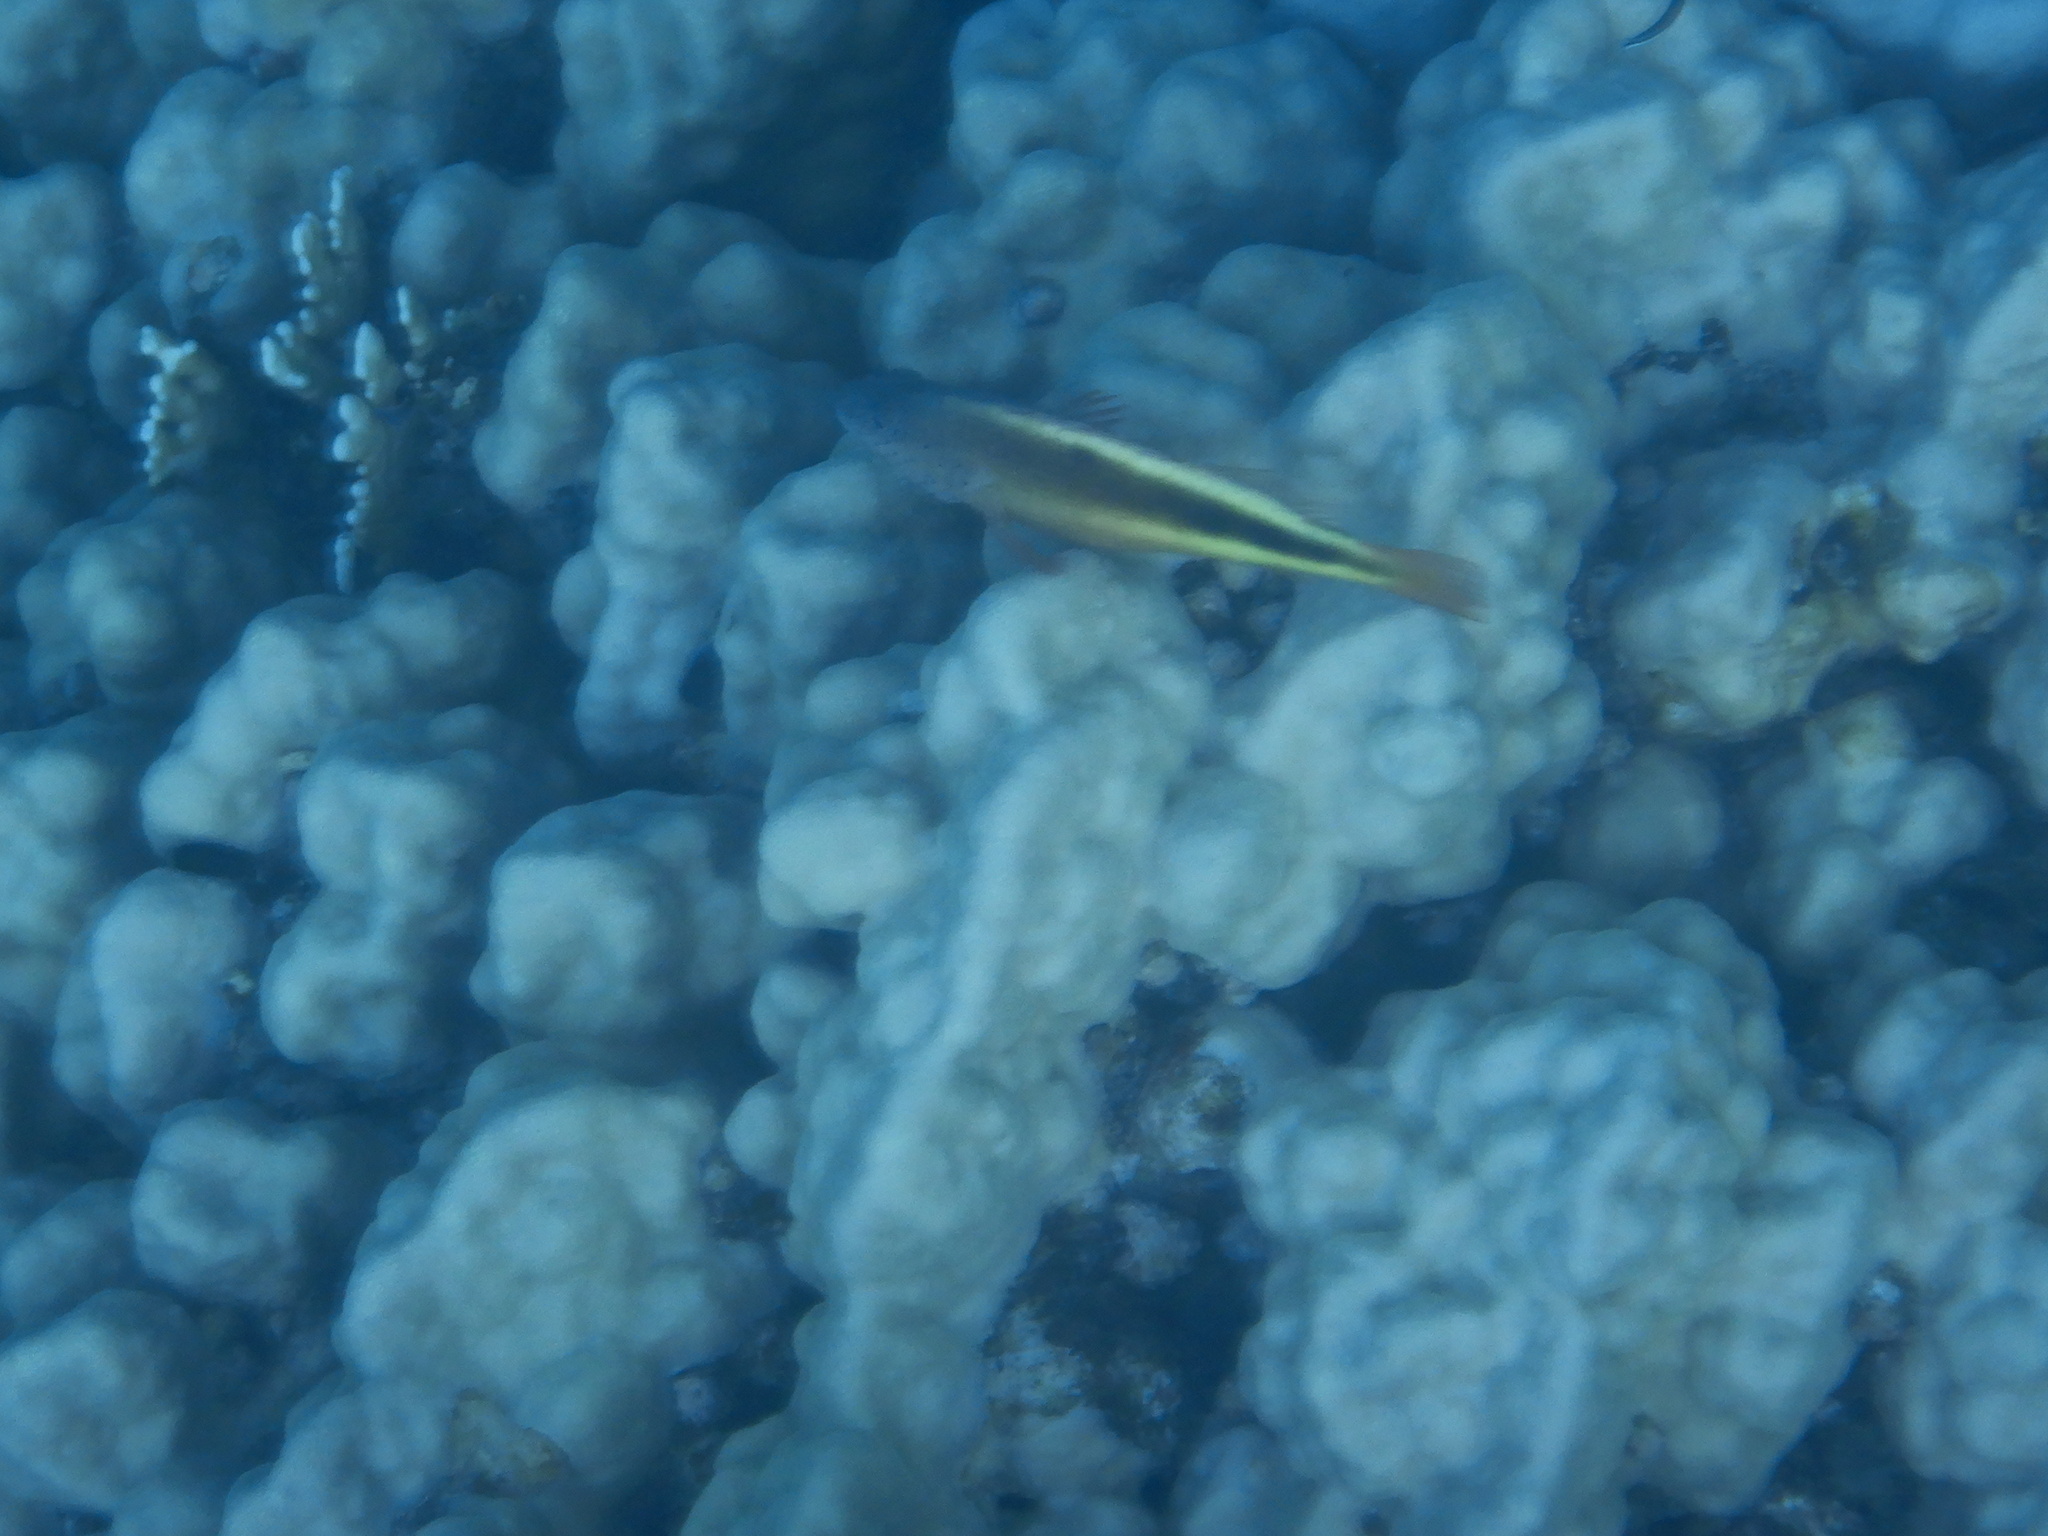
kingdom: Animalia
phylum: Chordata
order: Perciformes
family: Cirrhitidae
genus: Paracirrhites
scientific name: Paracirrhites forsteri
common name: Freckled hawkfish
